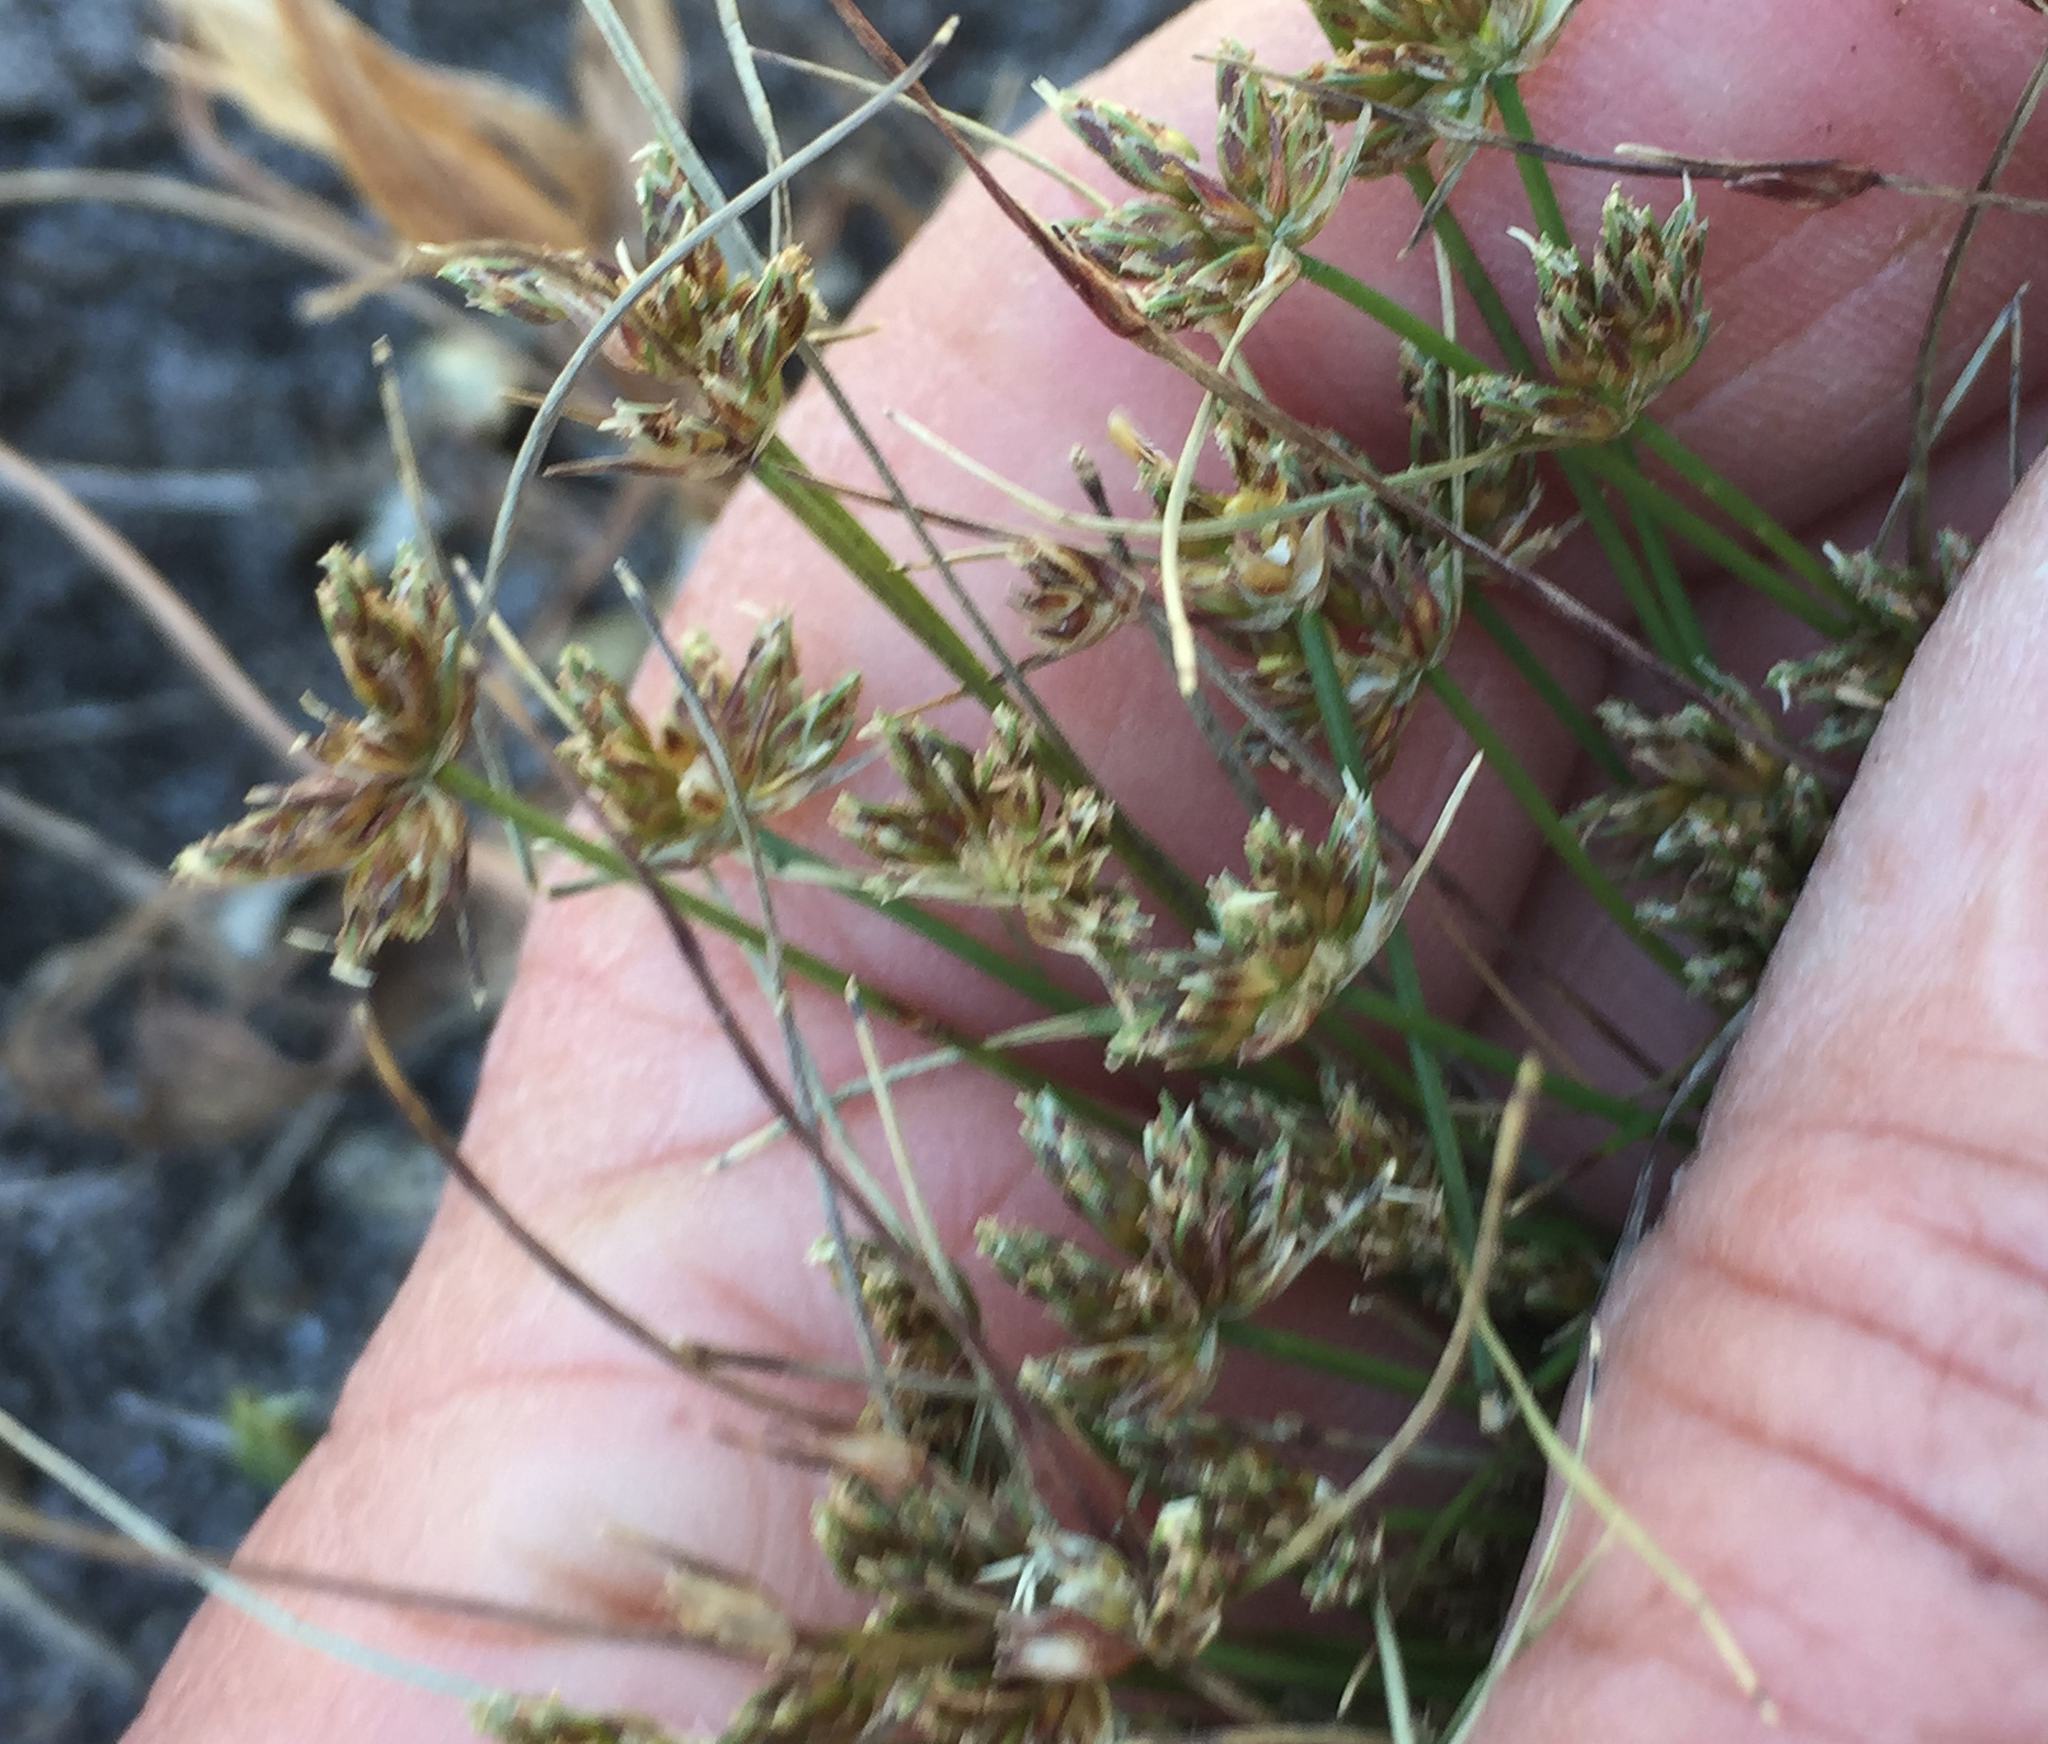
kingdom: Plantae
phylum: Tracheophyta
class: Liliopsida
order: Poales
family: Cyperaceae
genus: Isolepis
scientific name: Isolepis marginata
